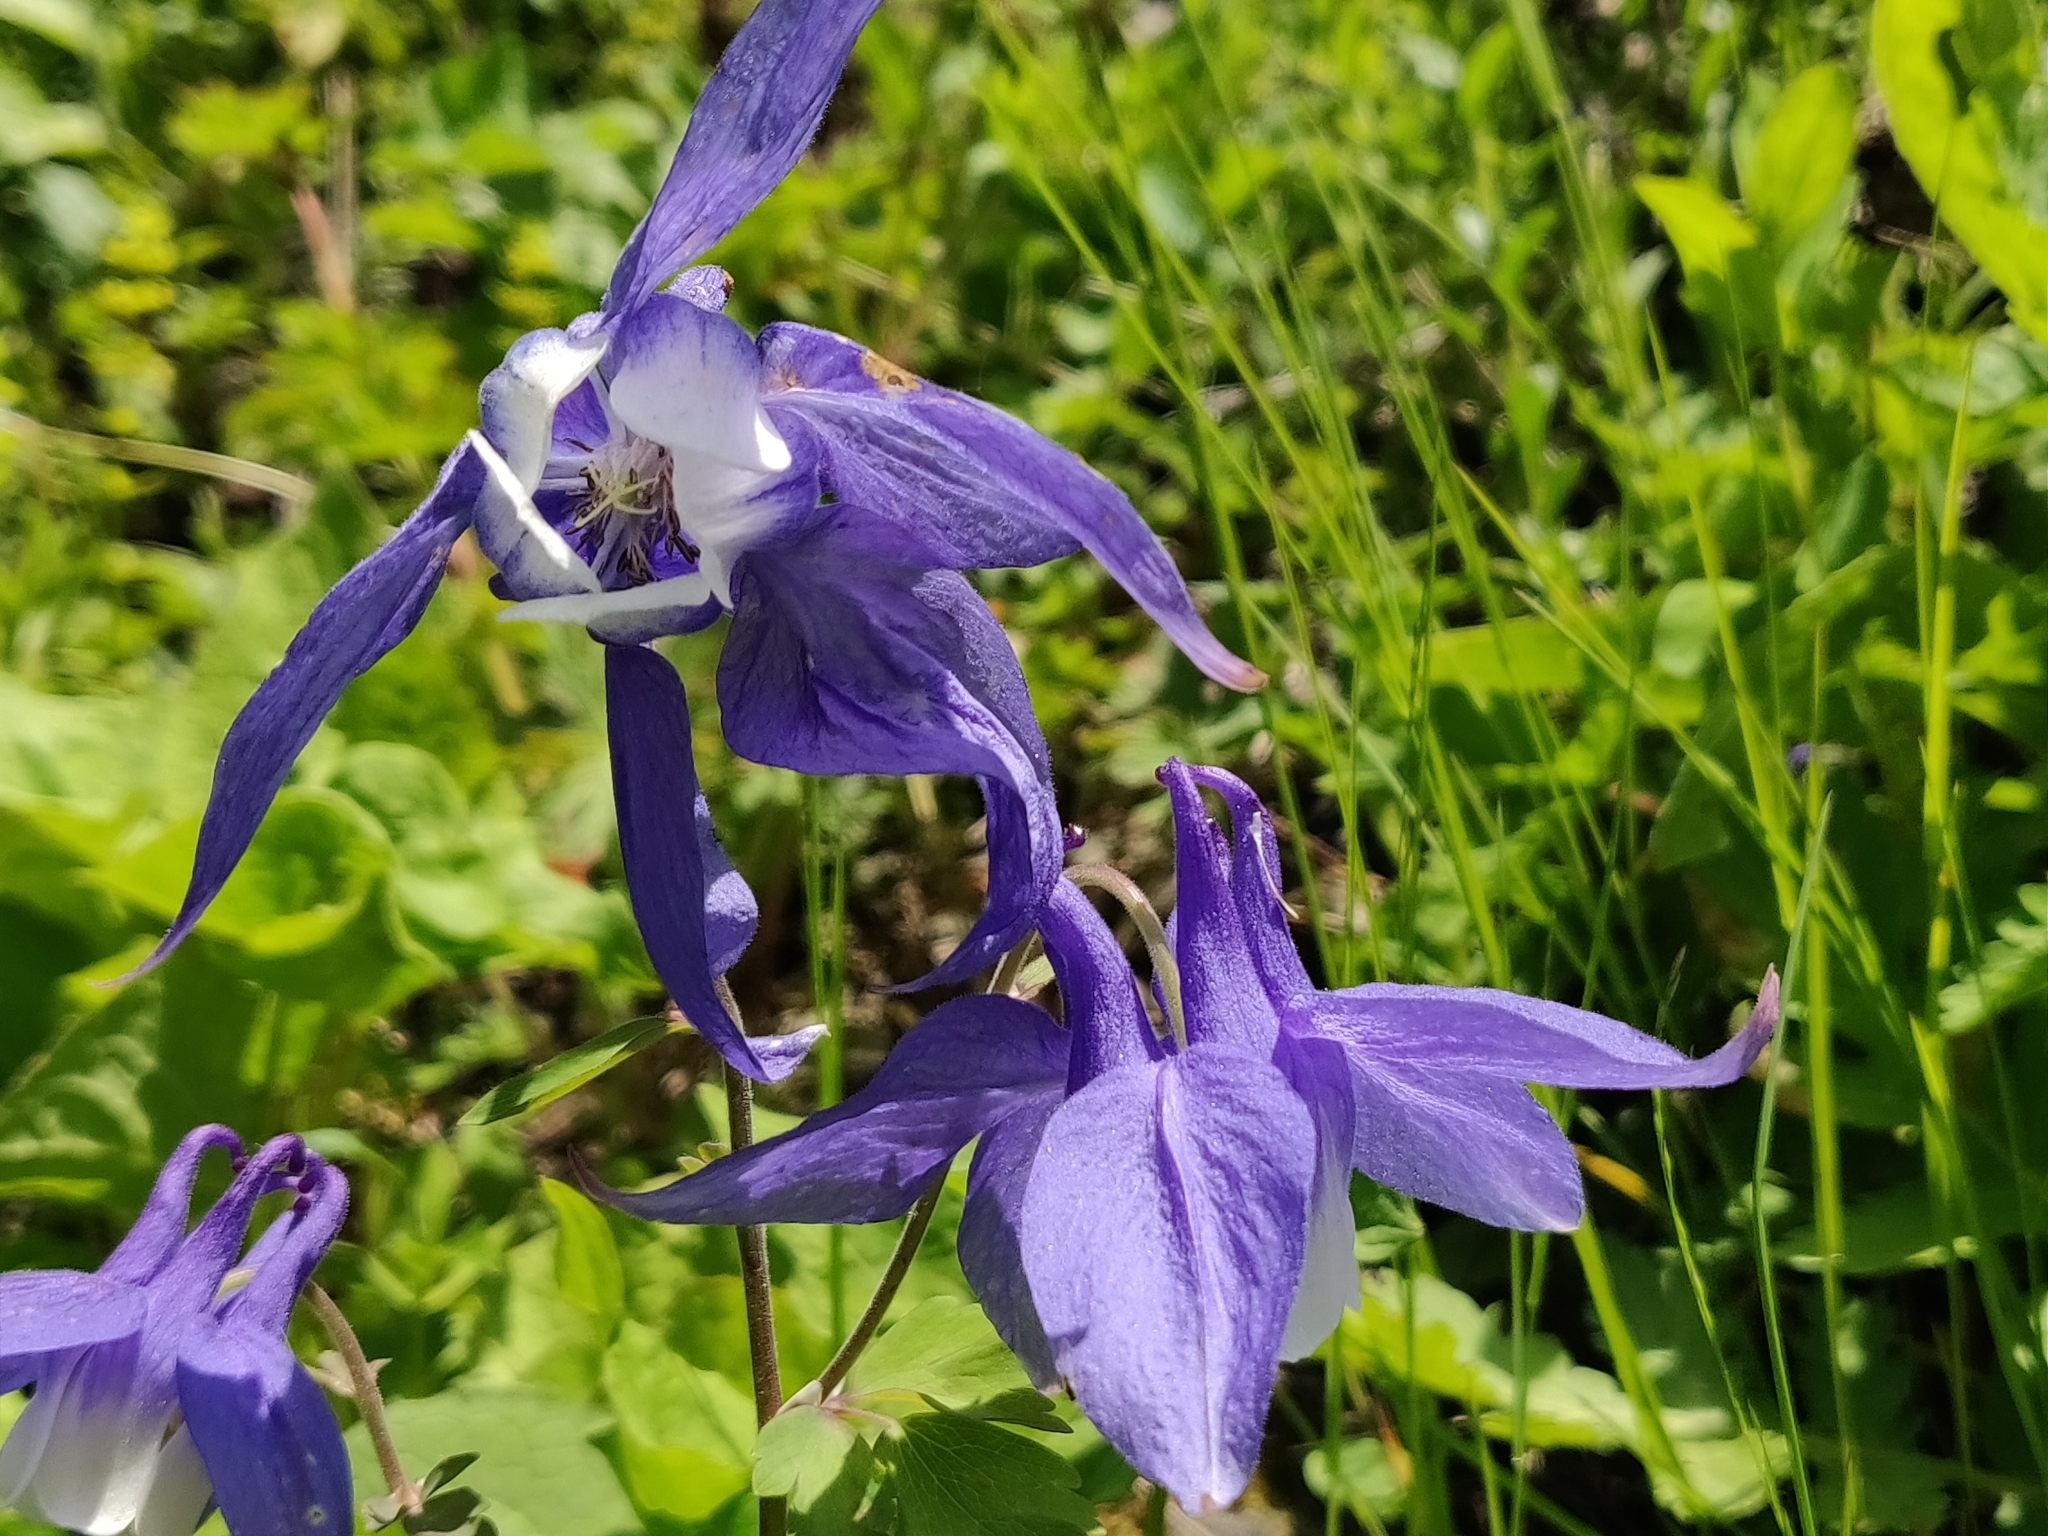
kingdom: Plantae
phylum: Tracheophyta
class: Magnoliopsida
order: Ranunculales
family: Ranunculaceae
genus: Aquilegia
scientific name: Aquilegia olympica
